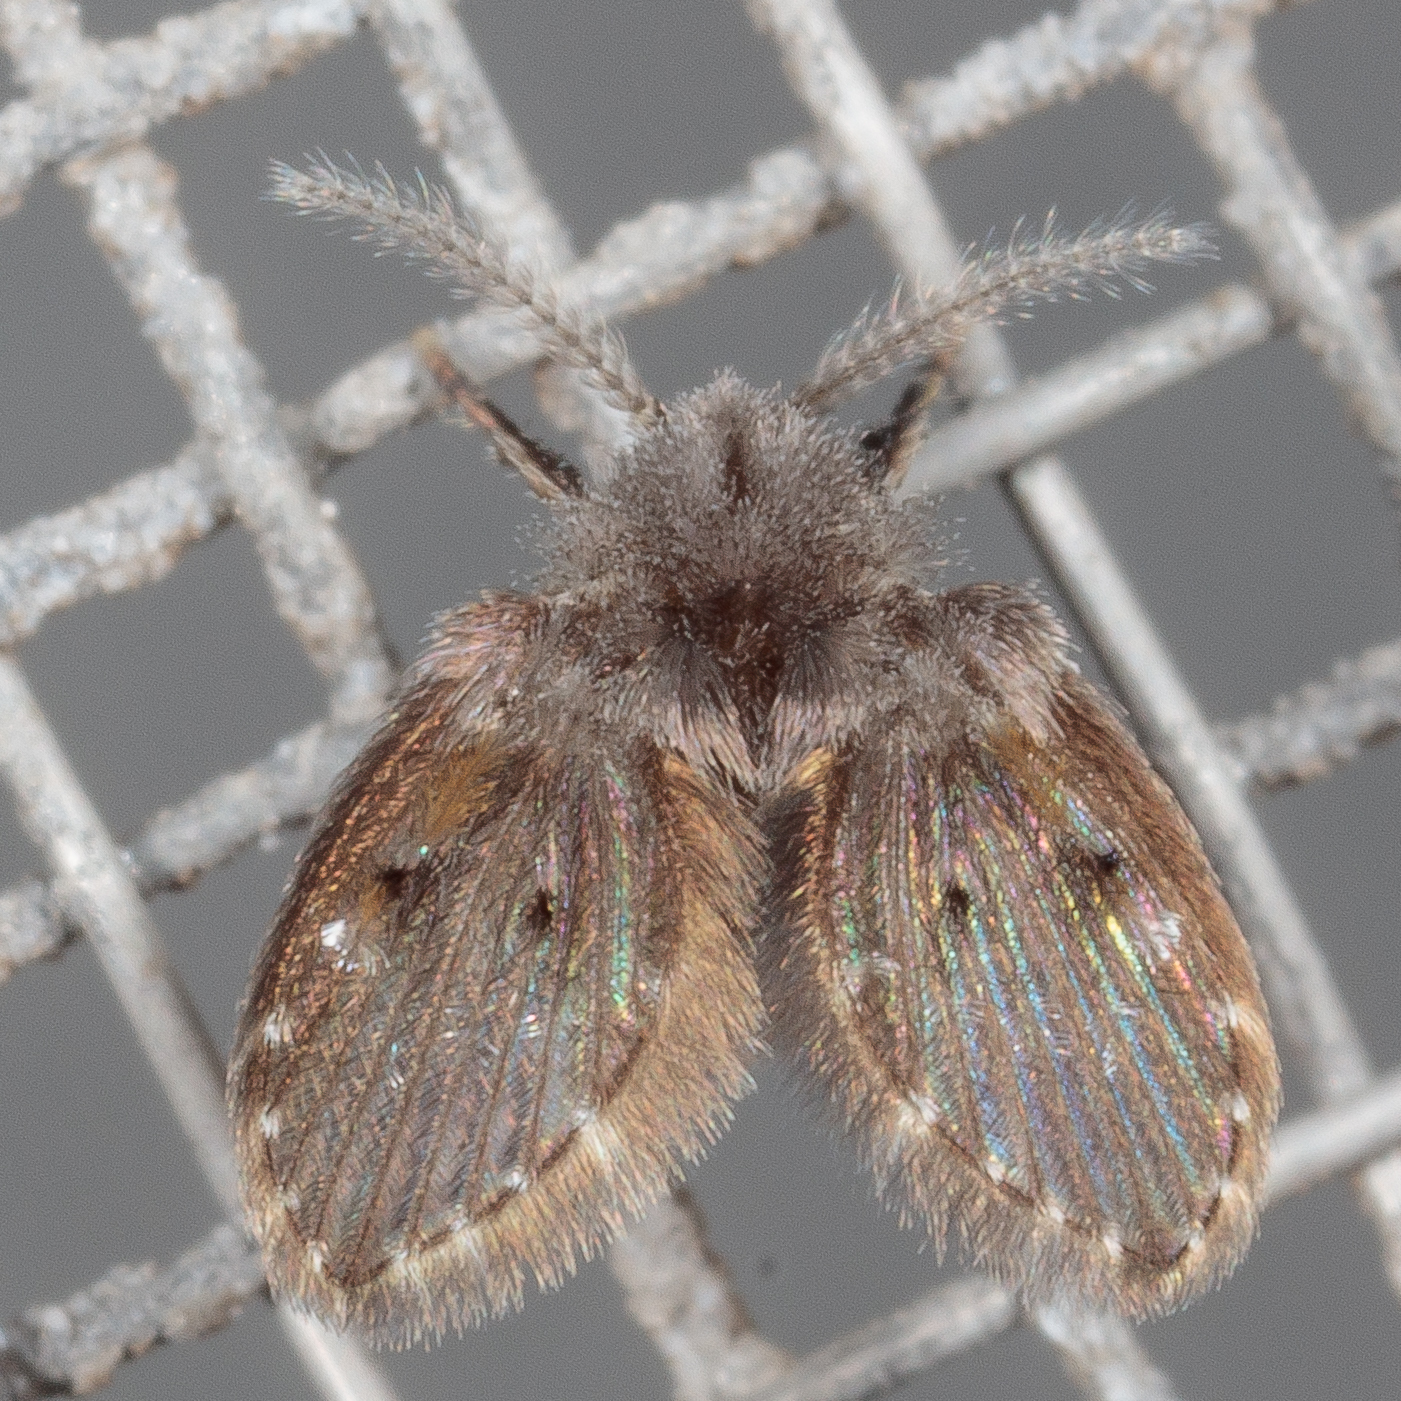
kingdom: Animalia
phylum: Arthropoda
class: Insecta
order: Diptera
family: Psychodidae
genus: Clogmia
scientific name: Clogmia albipunctatus
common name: White-spotted moth fly
